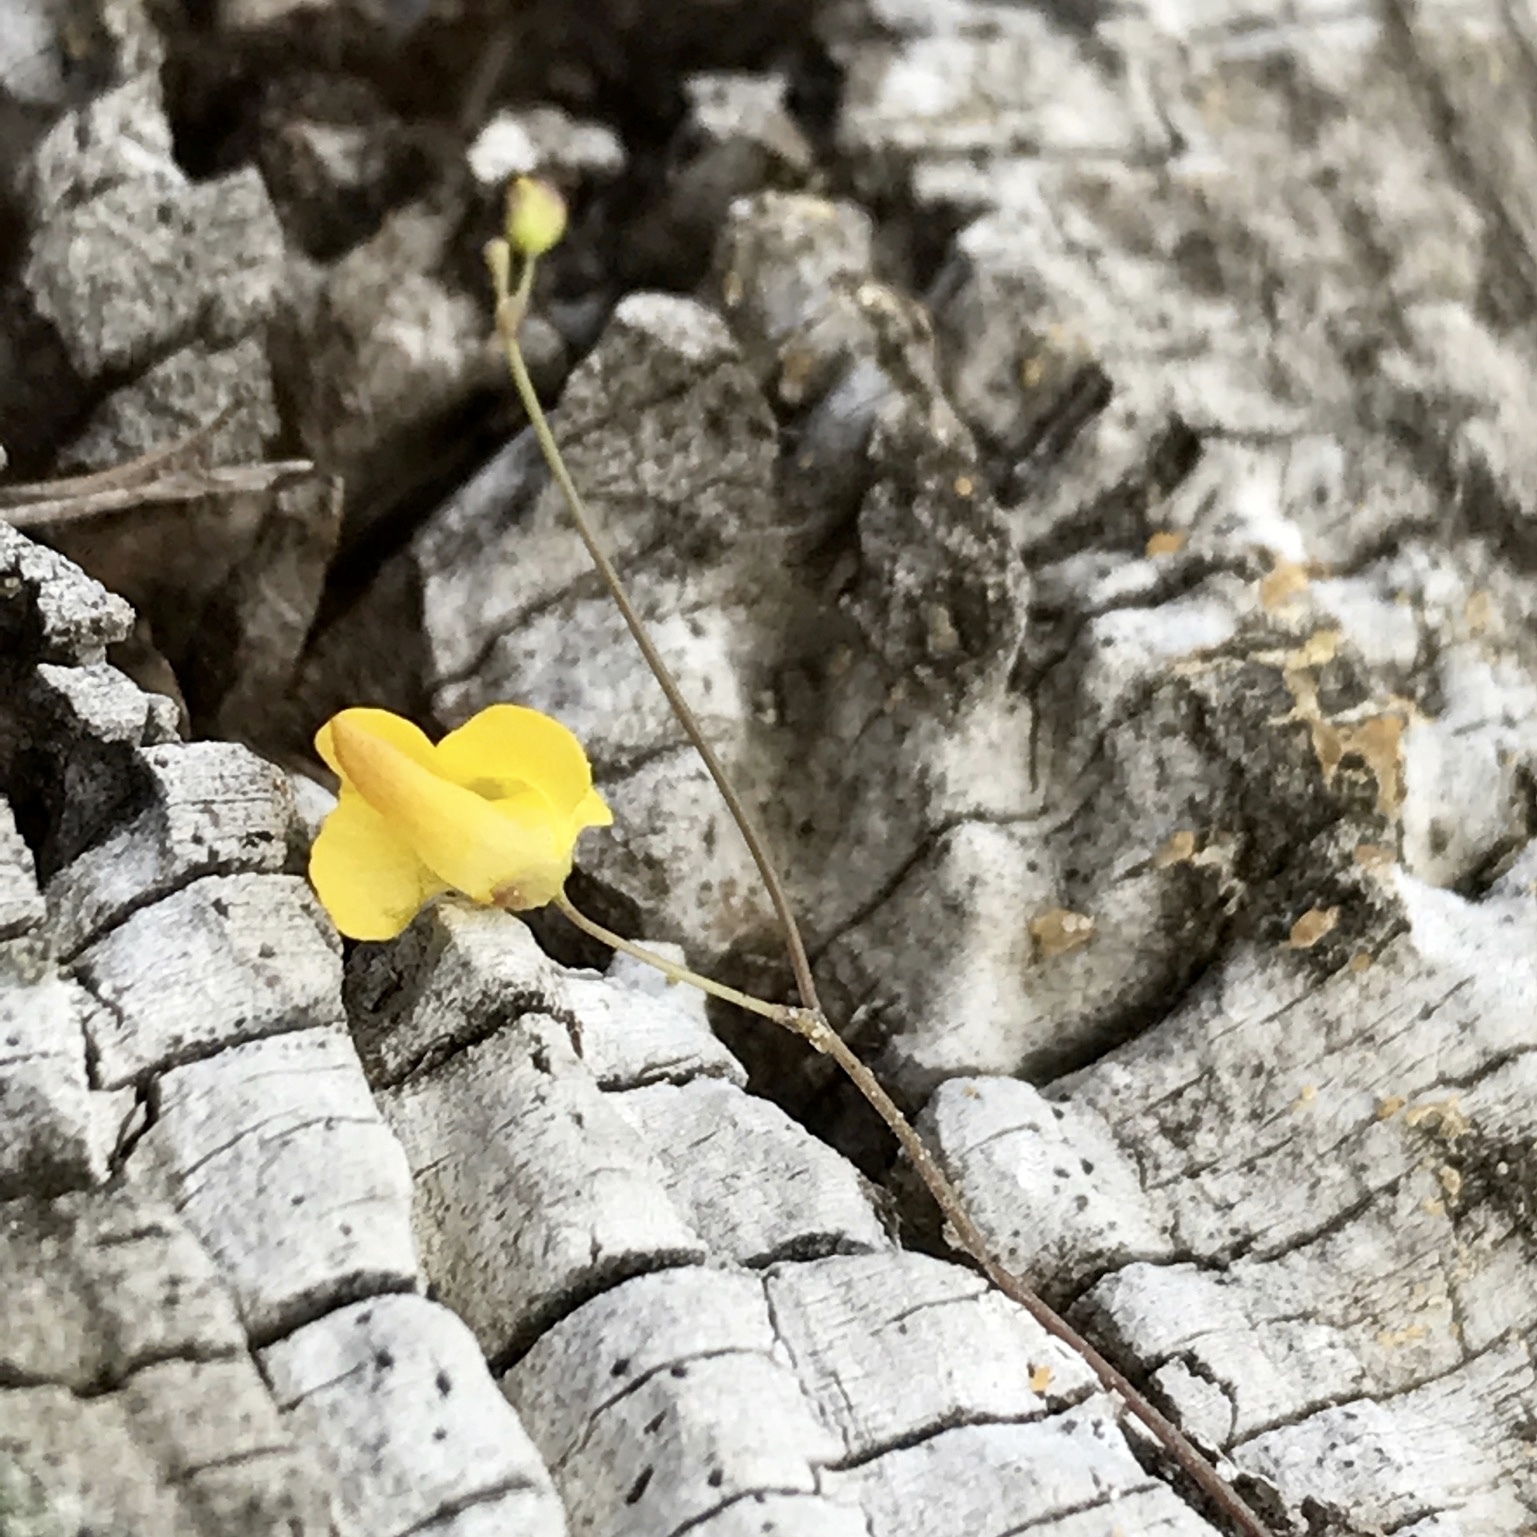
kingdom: Plantae
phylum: Tracheophyta
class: Magnoliopsida
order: Lamiales
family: Lentibulariaceae
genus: Utricularia
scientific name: Utricularia subulata
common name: Tiny bladderwort
